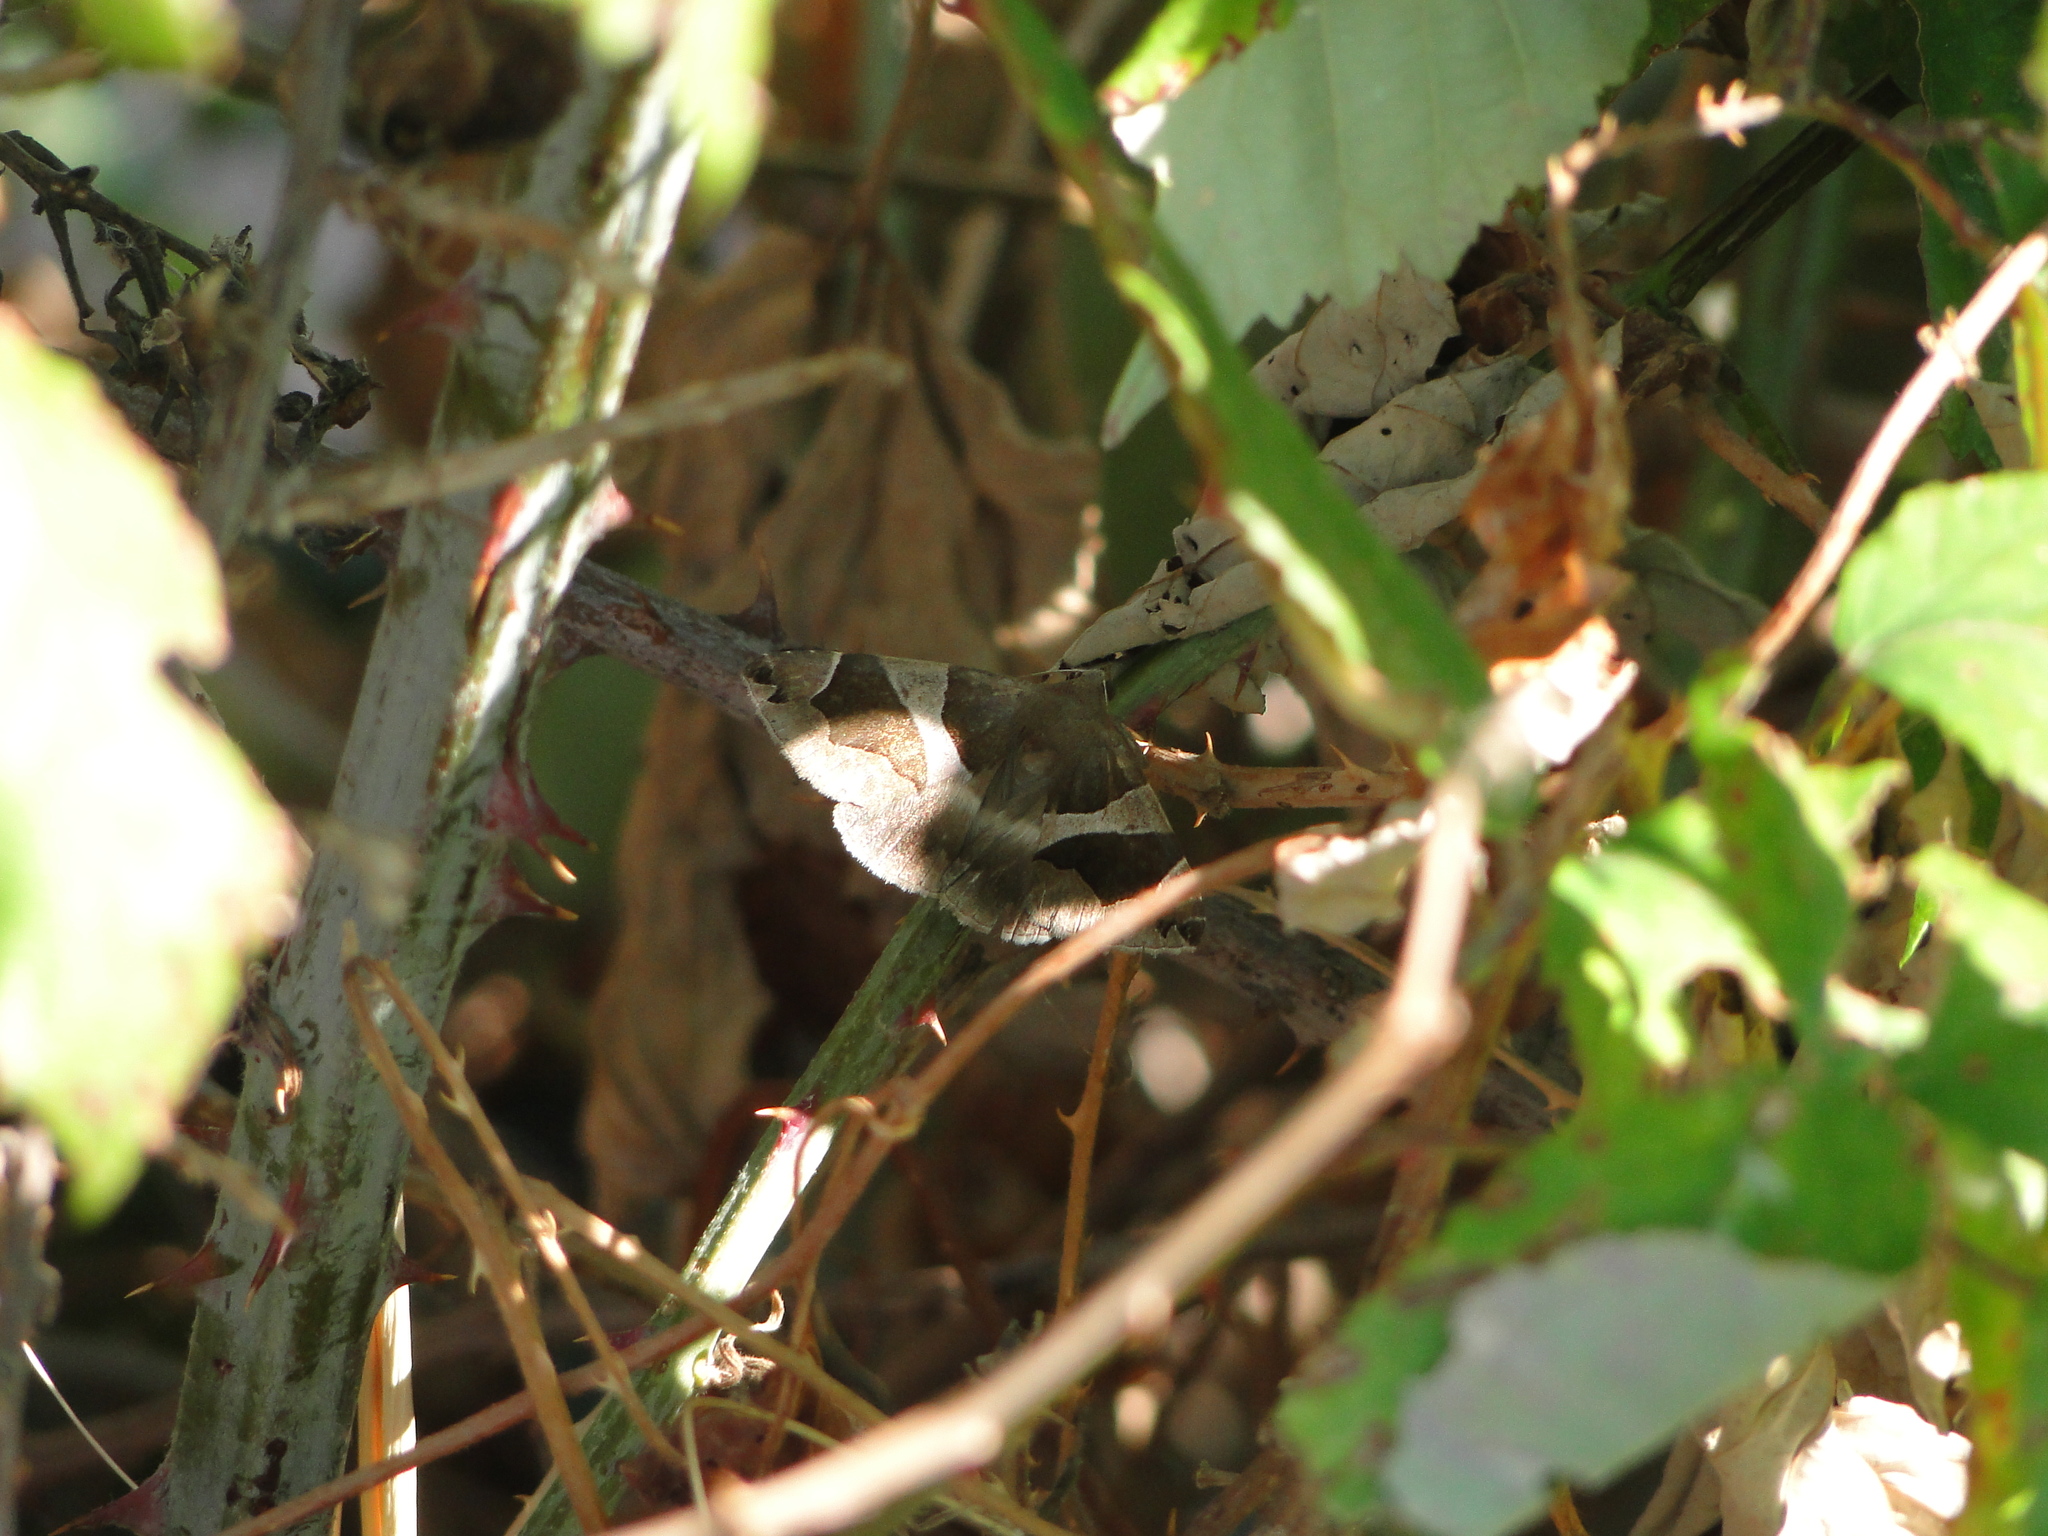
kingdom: Animalia
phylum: Arthropoda
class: Insecta
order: Lepidoptera
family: Erebidae
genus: Dysgonia
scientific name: Dysgonia algira
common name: Passenger
